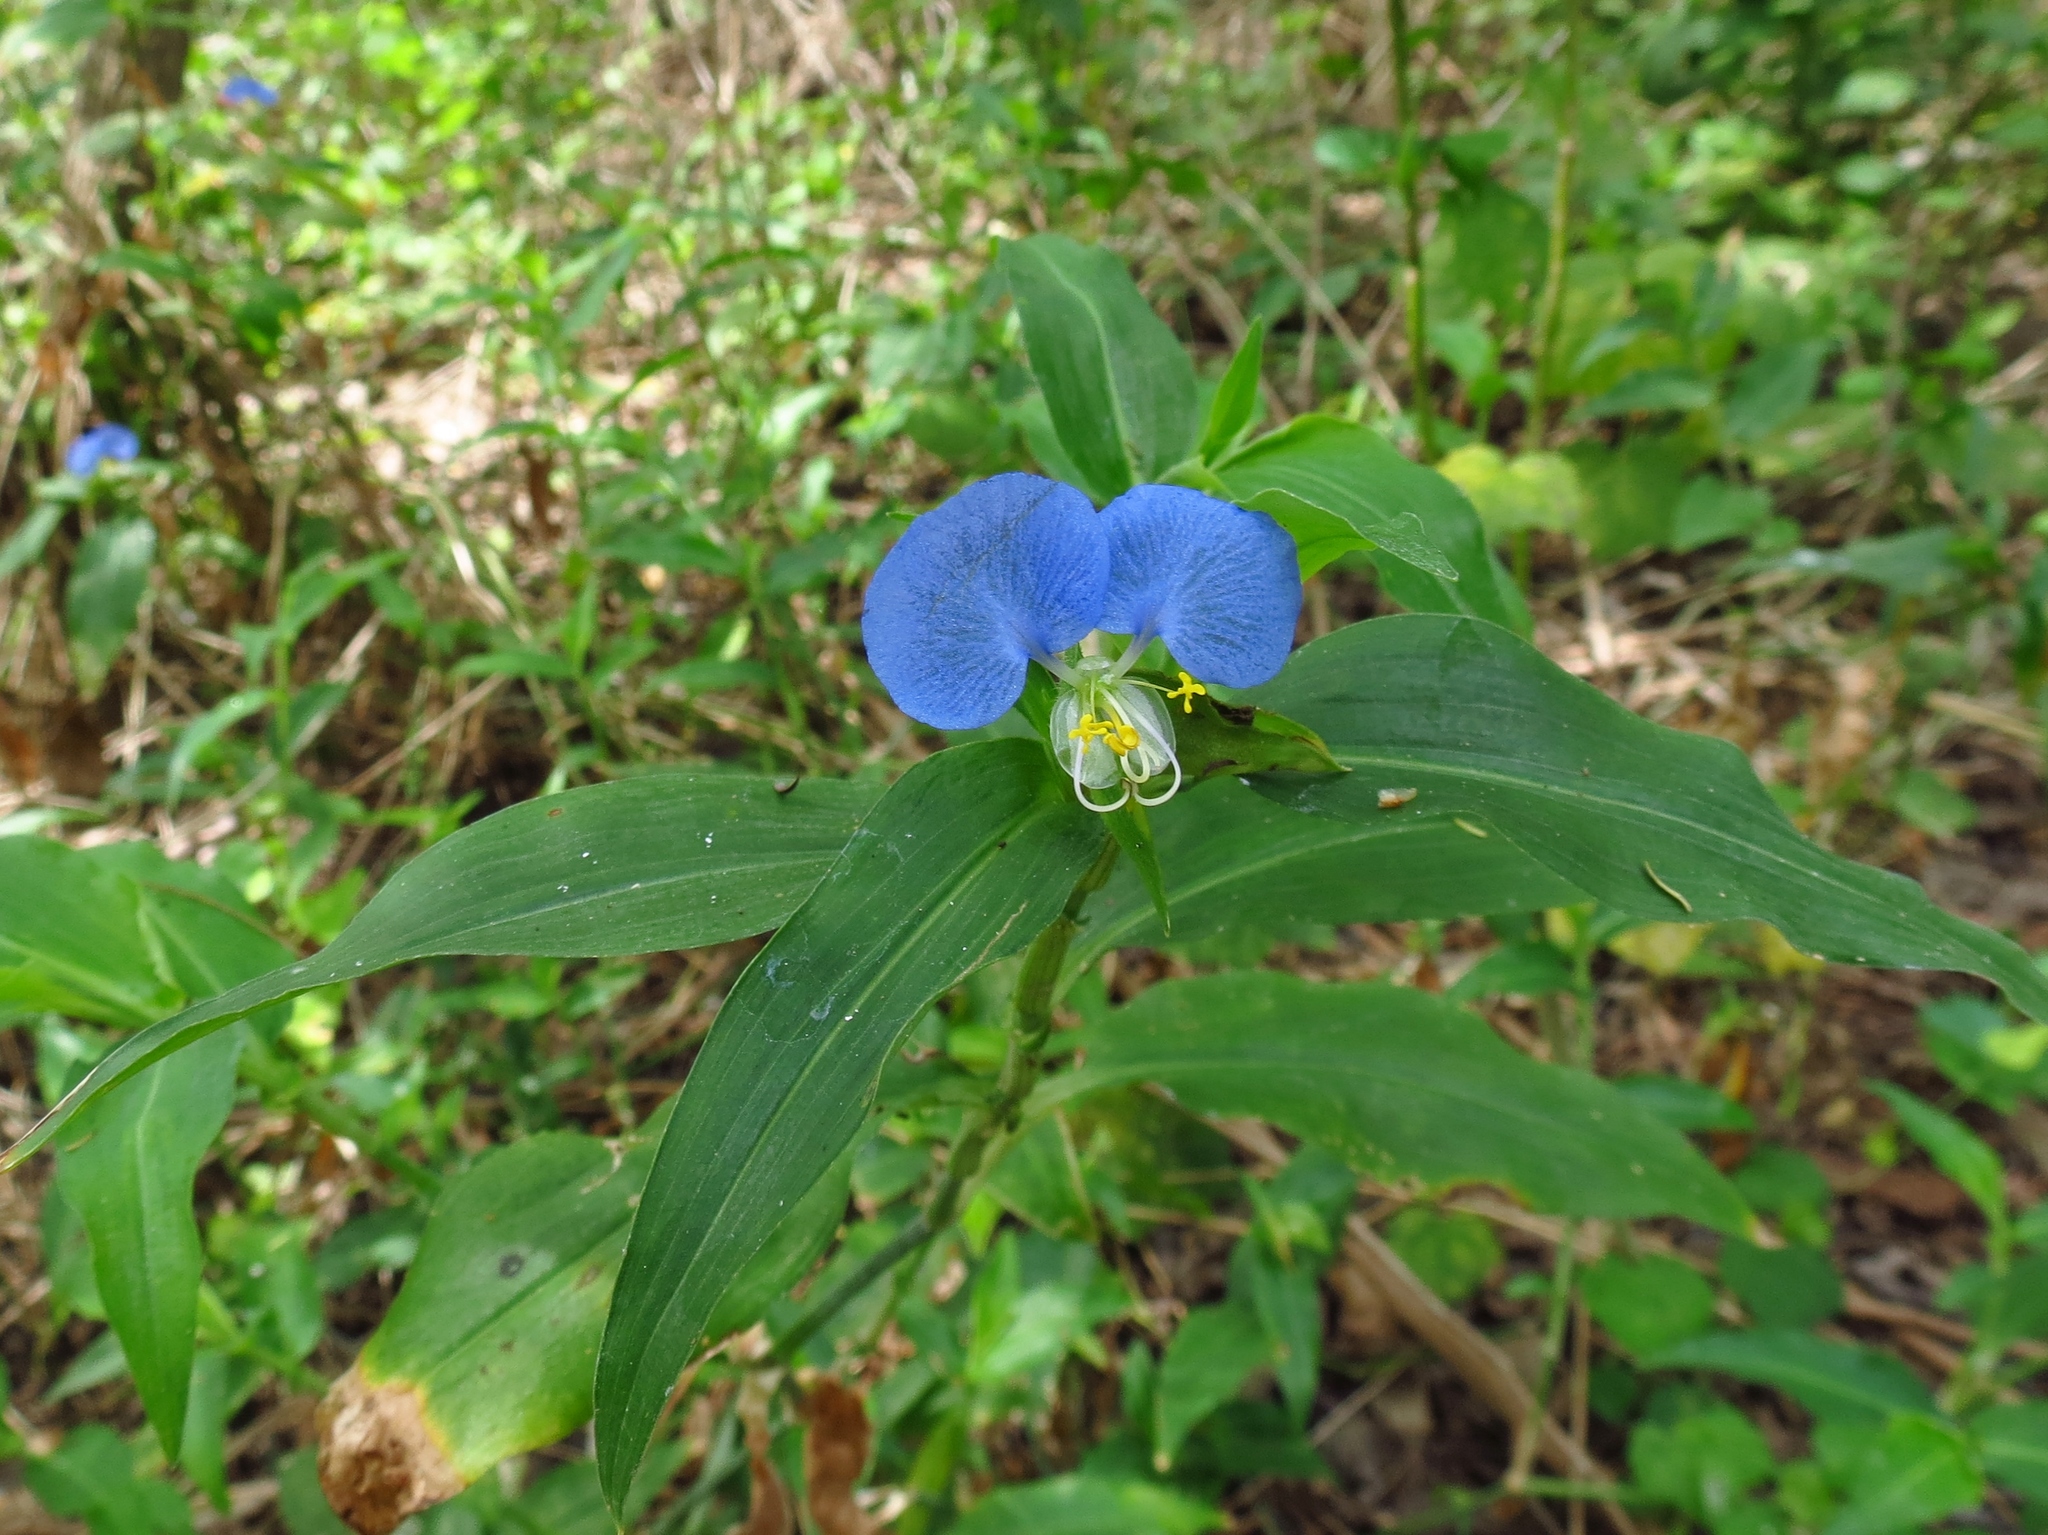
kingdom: Plantae
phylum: Tracheophyta
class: Liliopsida
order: Commelinales
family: Commelinaceae
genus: Commelina
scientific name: Commelina erecta
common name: Blousel blommetjie
